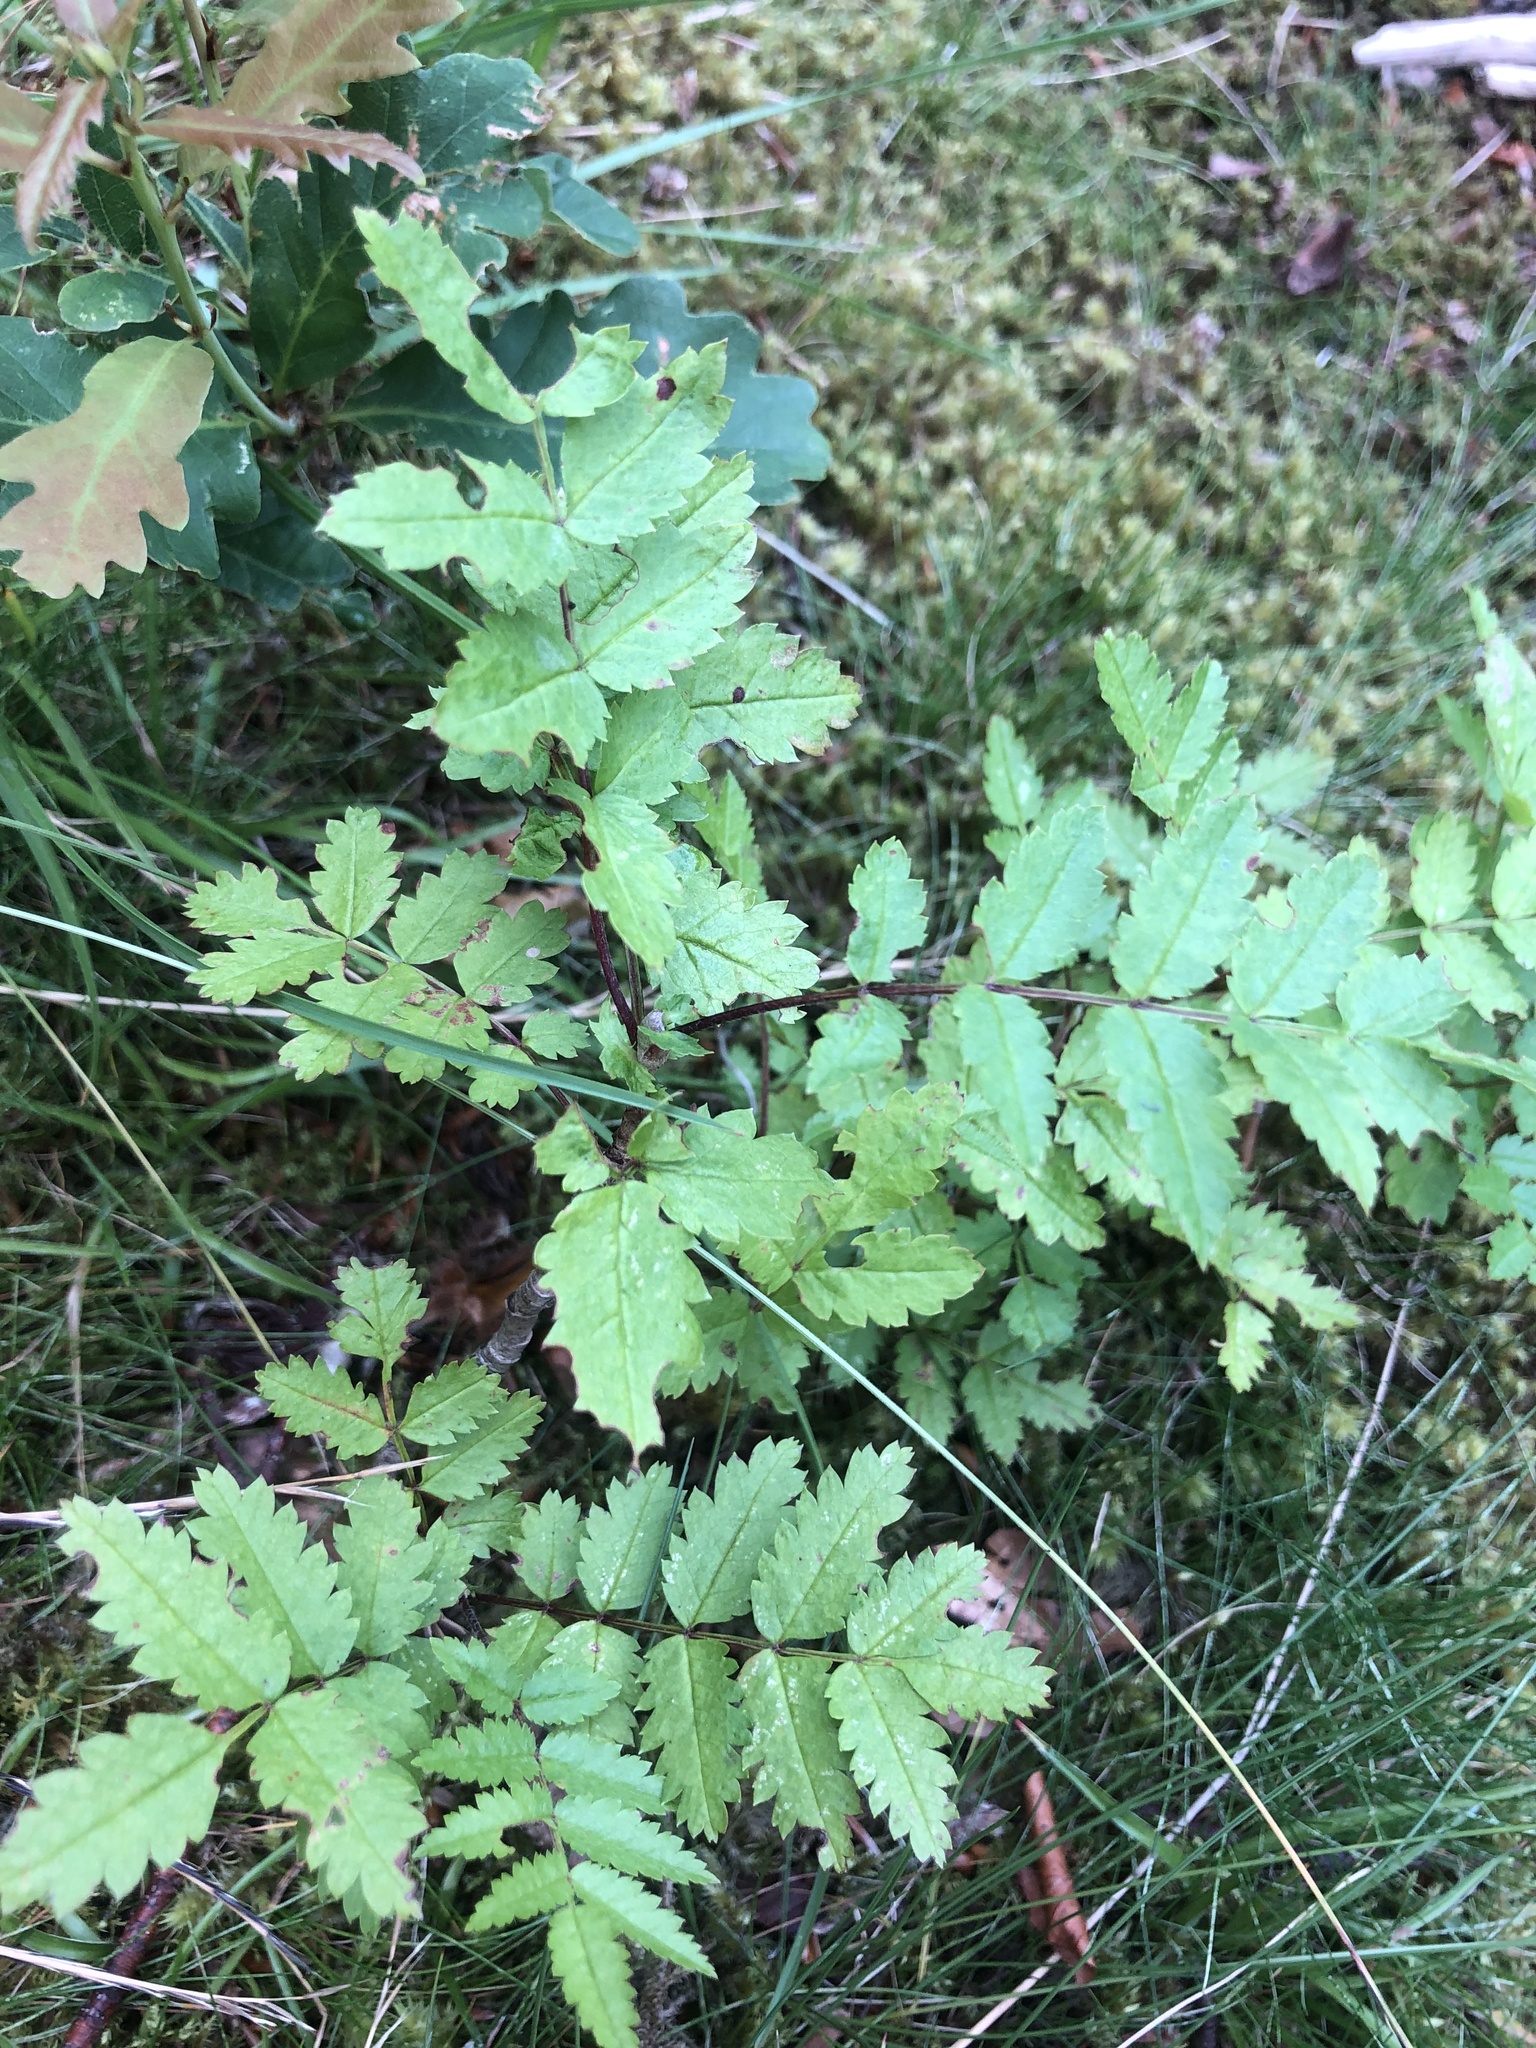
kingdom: Plantae
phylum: Tracheophyta
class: Magnoliopsida
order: Rosales
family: Rosaceae
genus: Sorbus
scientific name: Sorbus aucuparia
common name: Rowan
